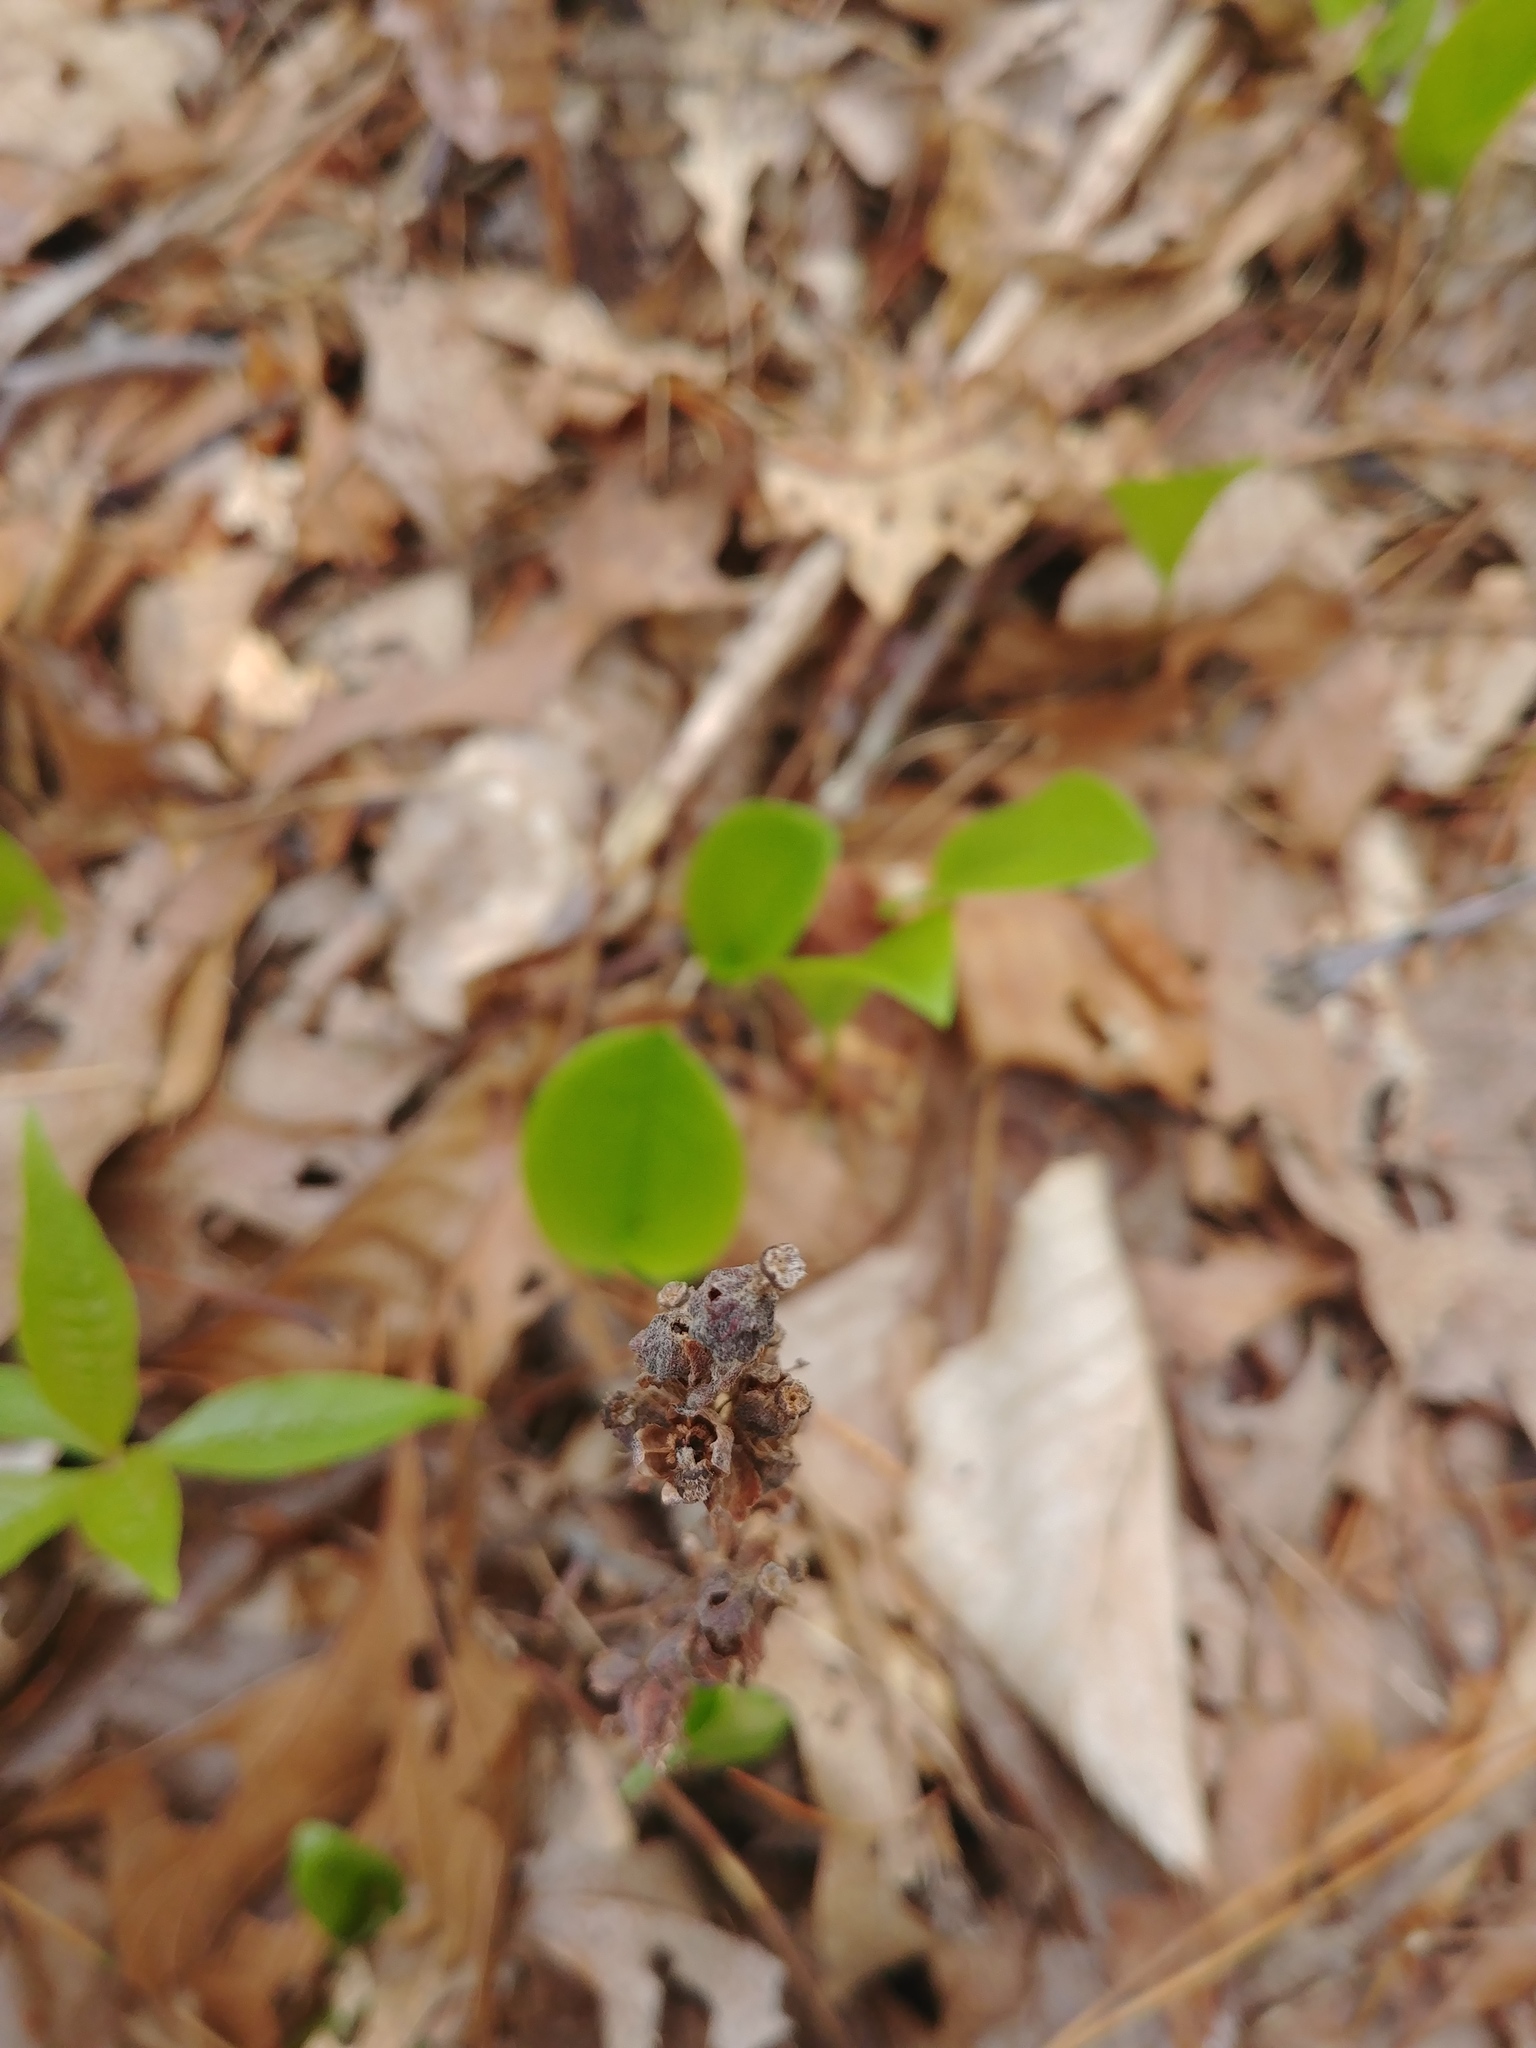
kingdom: Plantae
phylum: Tracheophyta
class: Magnoliopsida
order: Ericales
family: Ericaceae
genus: Hypopitys
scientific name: Hypopitys monotropa
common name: Yellow bird's-nest
